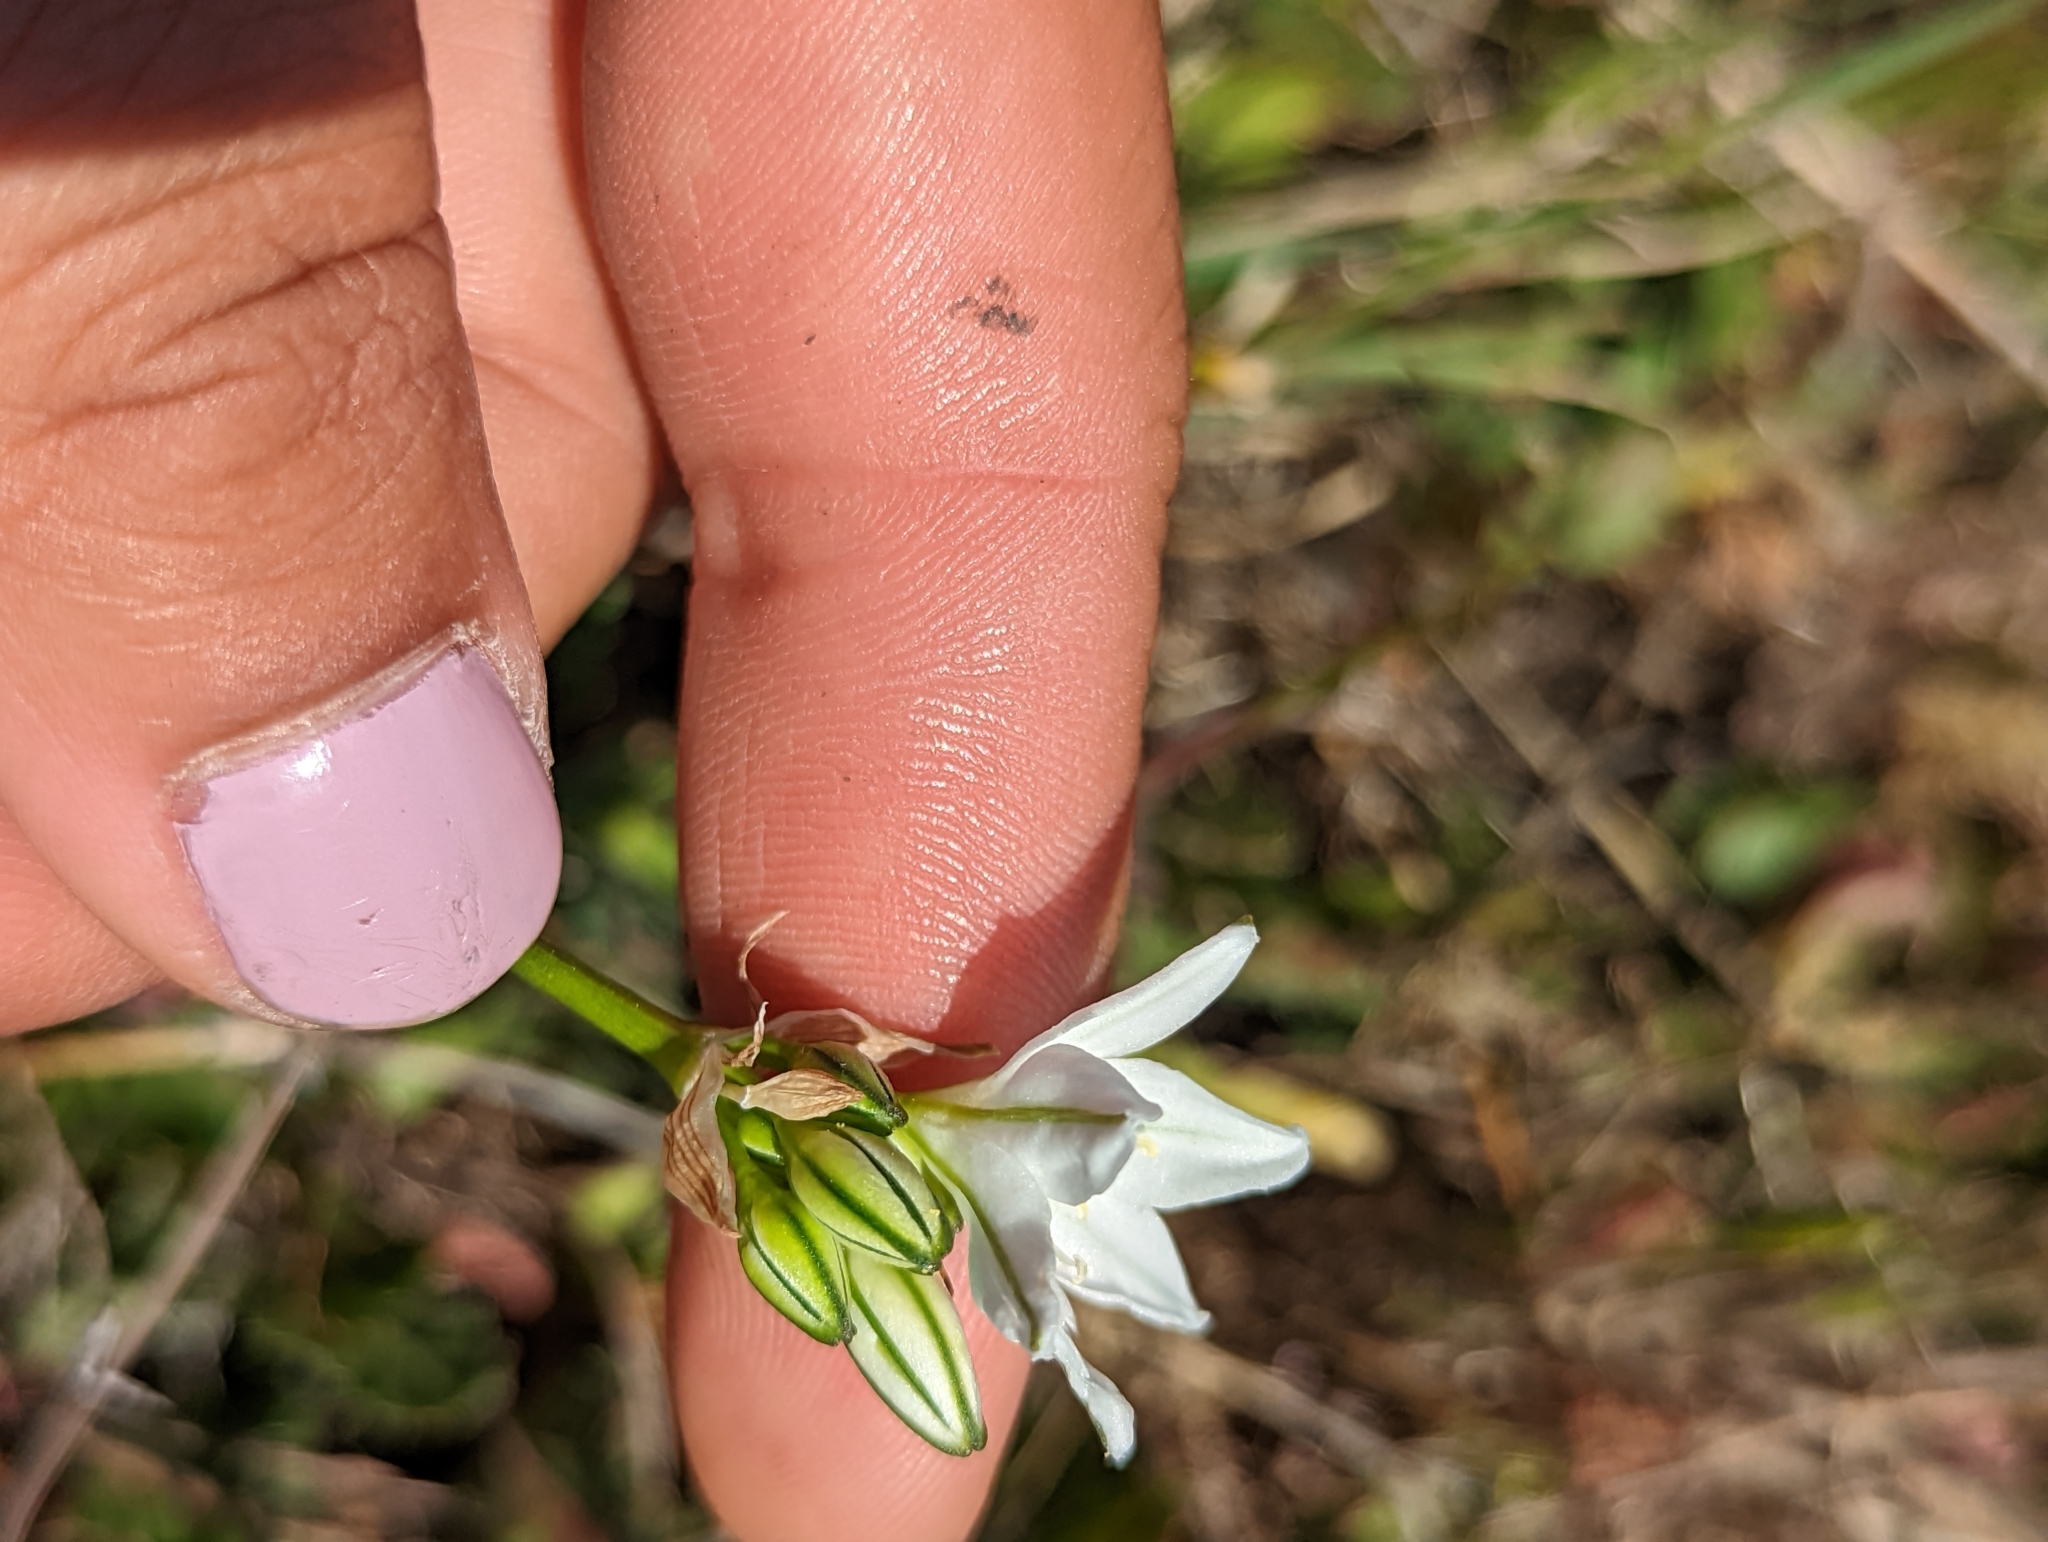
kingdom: Plantae
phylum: Tracheophyta
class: Liliopsida
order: Asparagales
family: Asparagaceae
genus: Triteleia
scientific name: Triteleia hyacinthina
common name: White brodiaea
